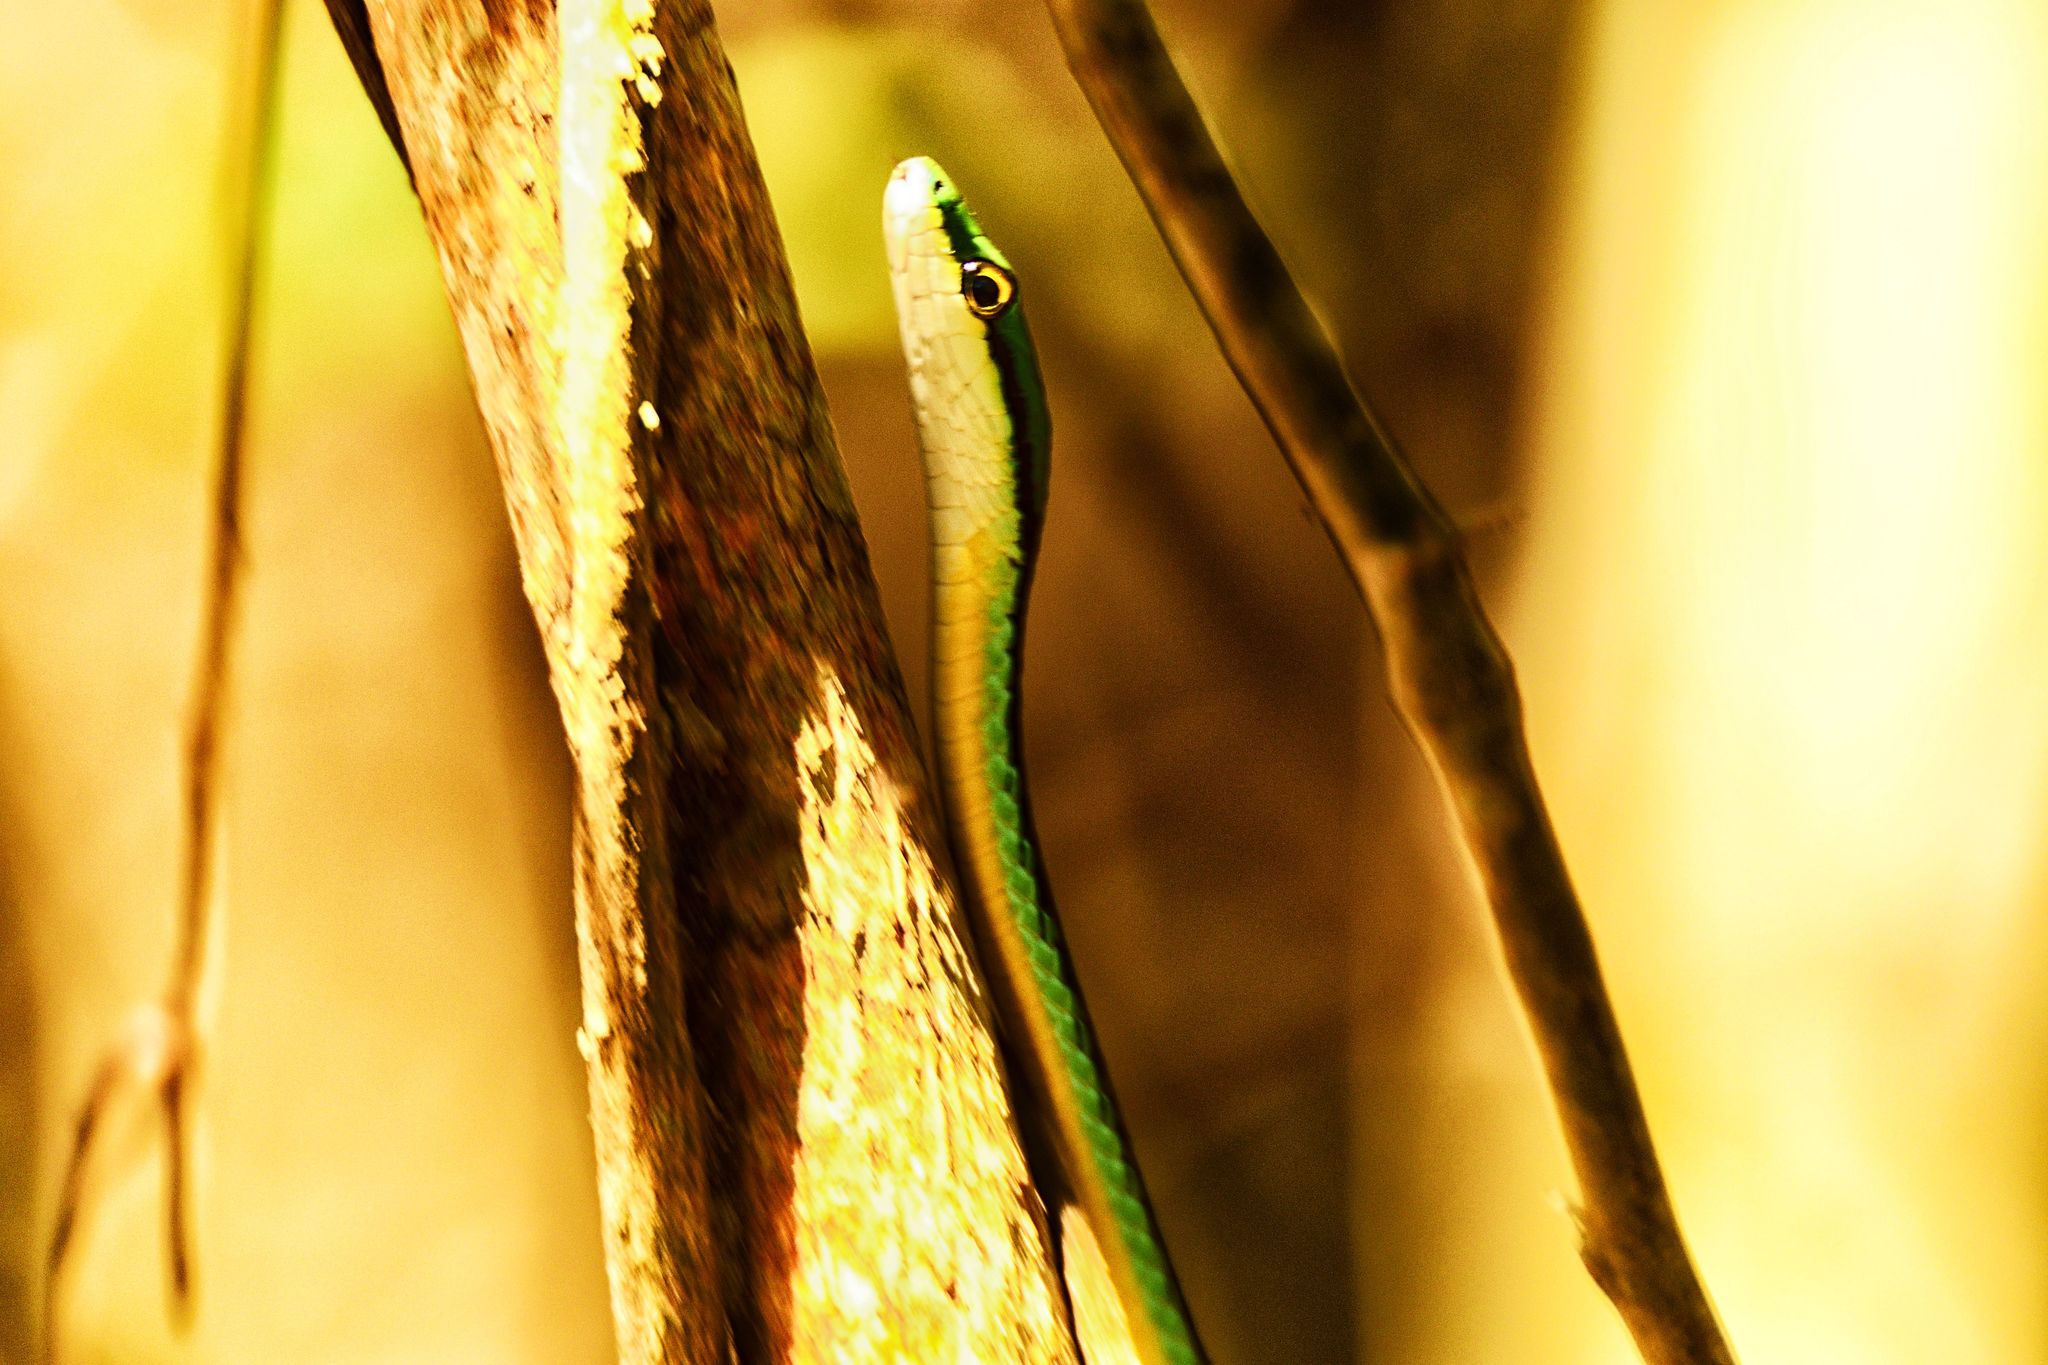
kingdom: Animalia
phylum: Chordata
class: Squamata
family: Colubridae
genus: Leptophis
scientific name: Leptophis diplotropis
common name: Pacific coast parrot snake
